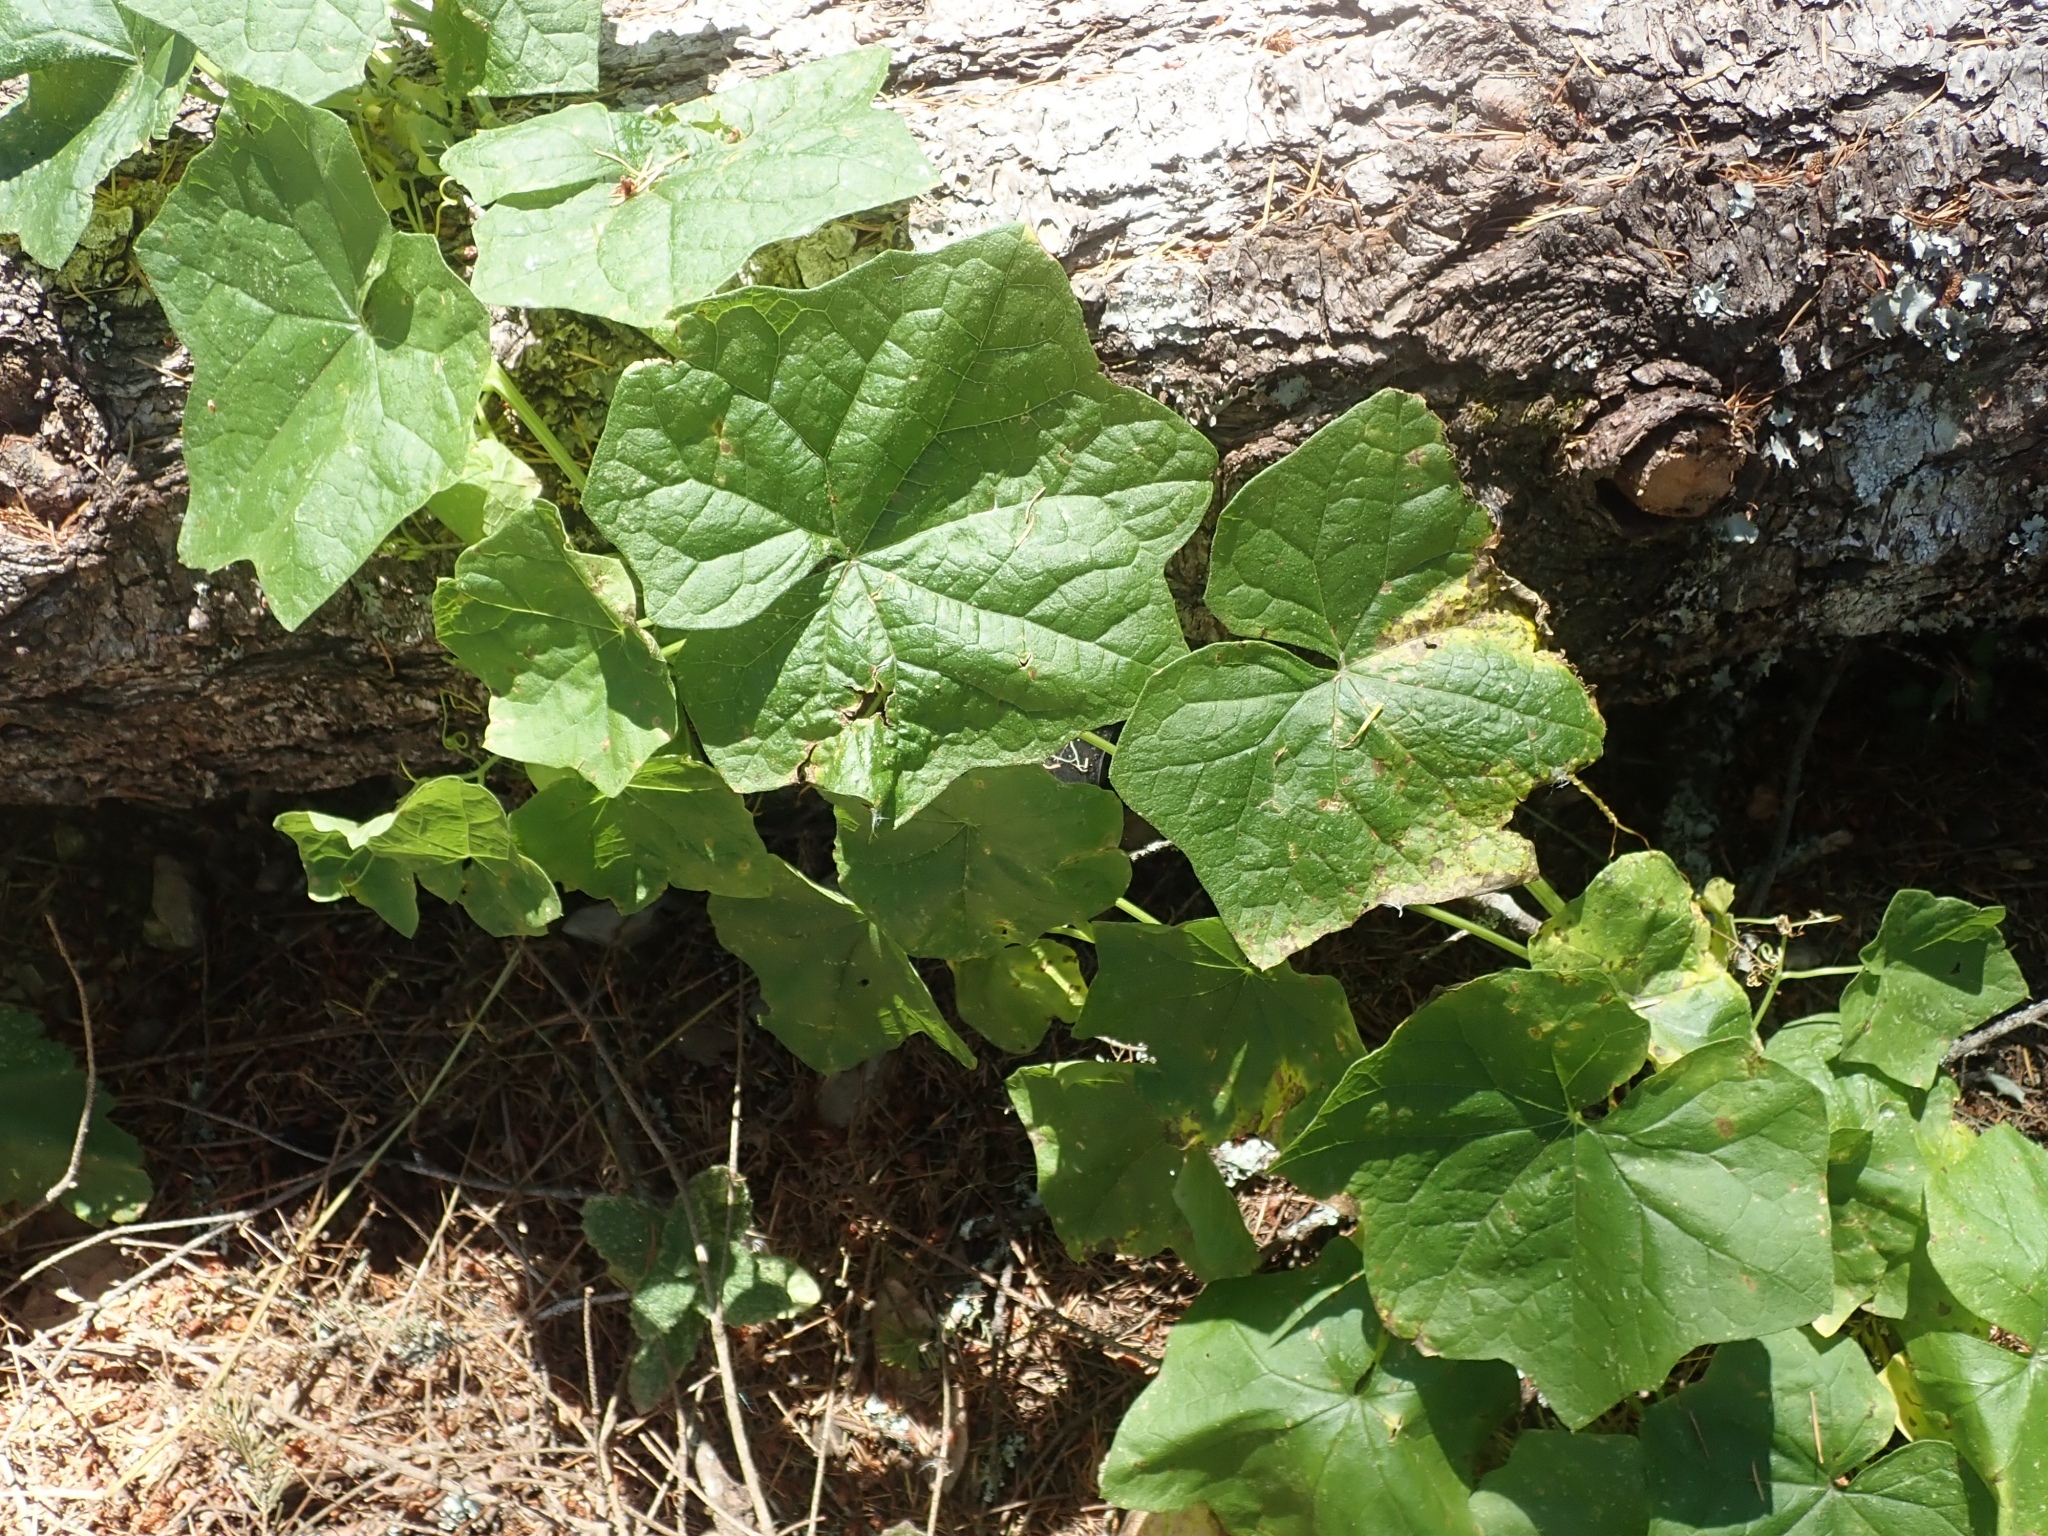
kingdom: Plantae
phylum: Tracheophyta
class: Magnoliopsida
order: Cucurbitales
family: Cucurbitaceae
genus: Marah
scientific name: Marah fabacea
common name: California manroot
